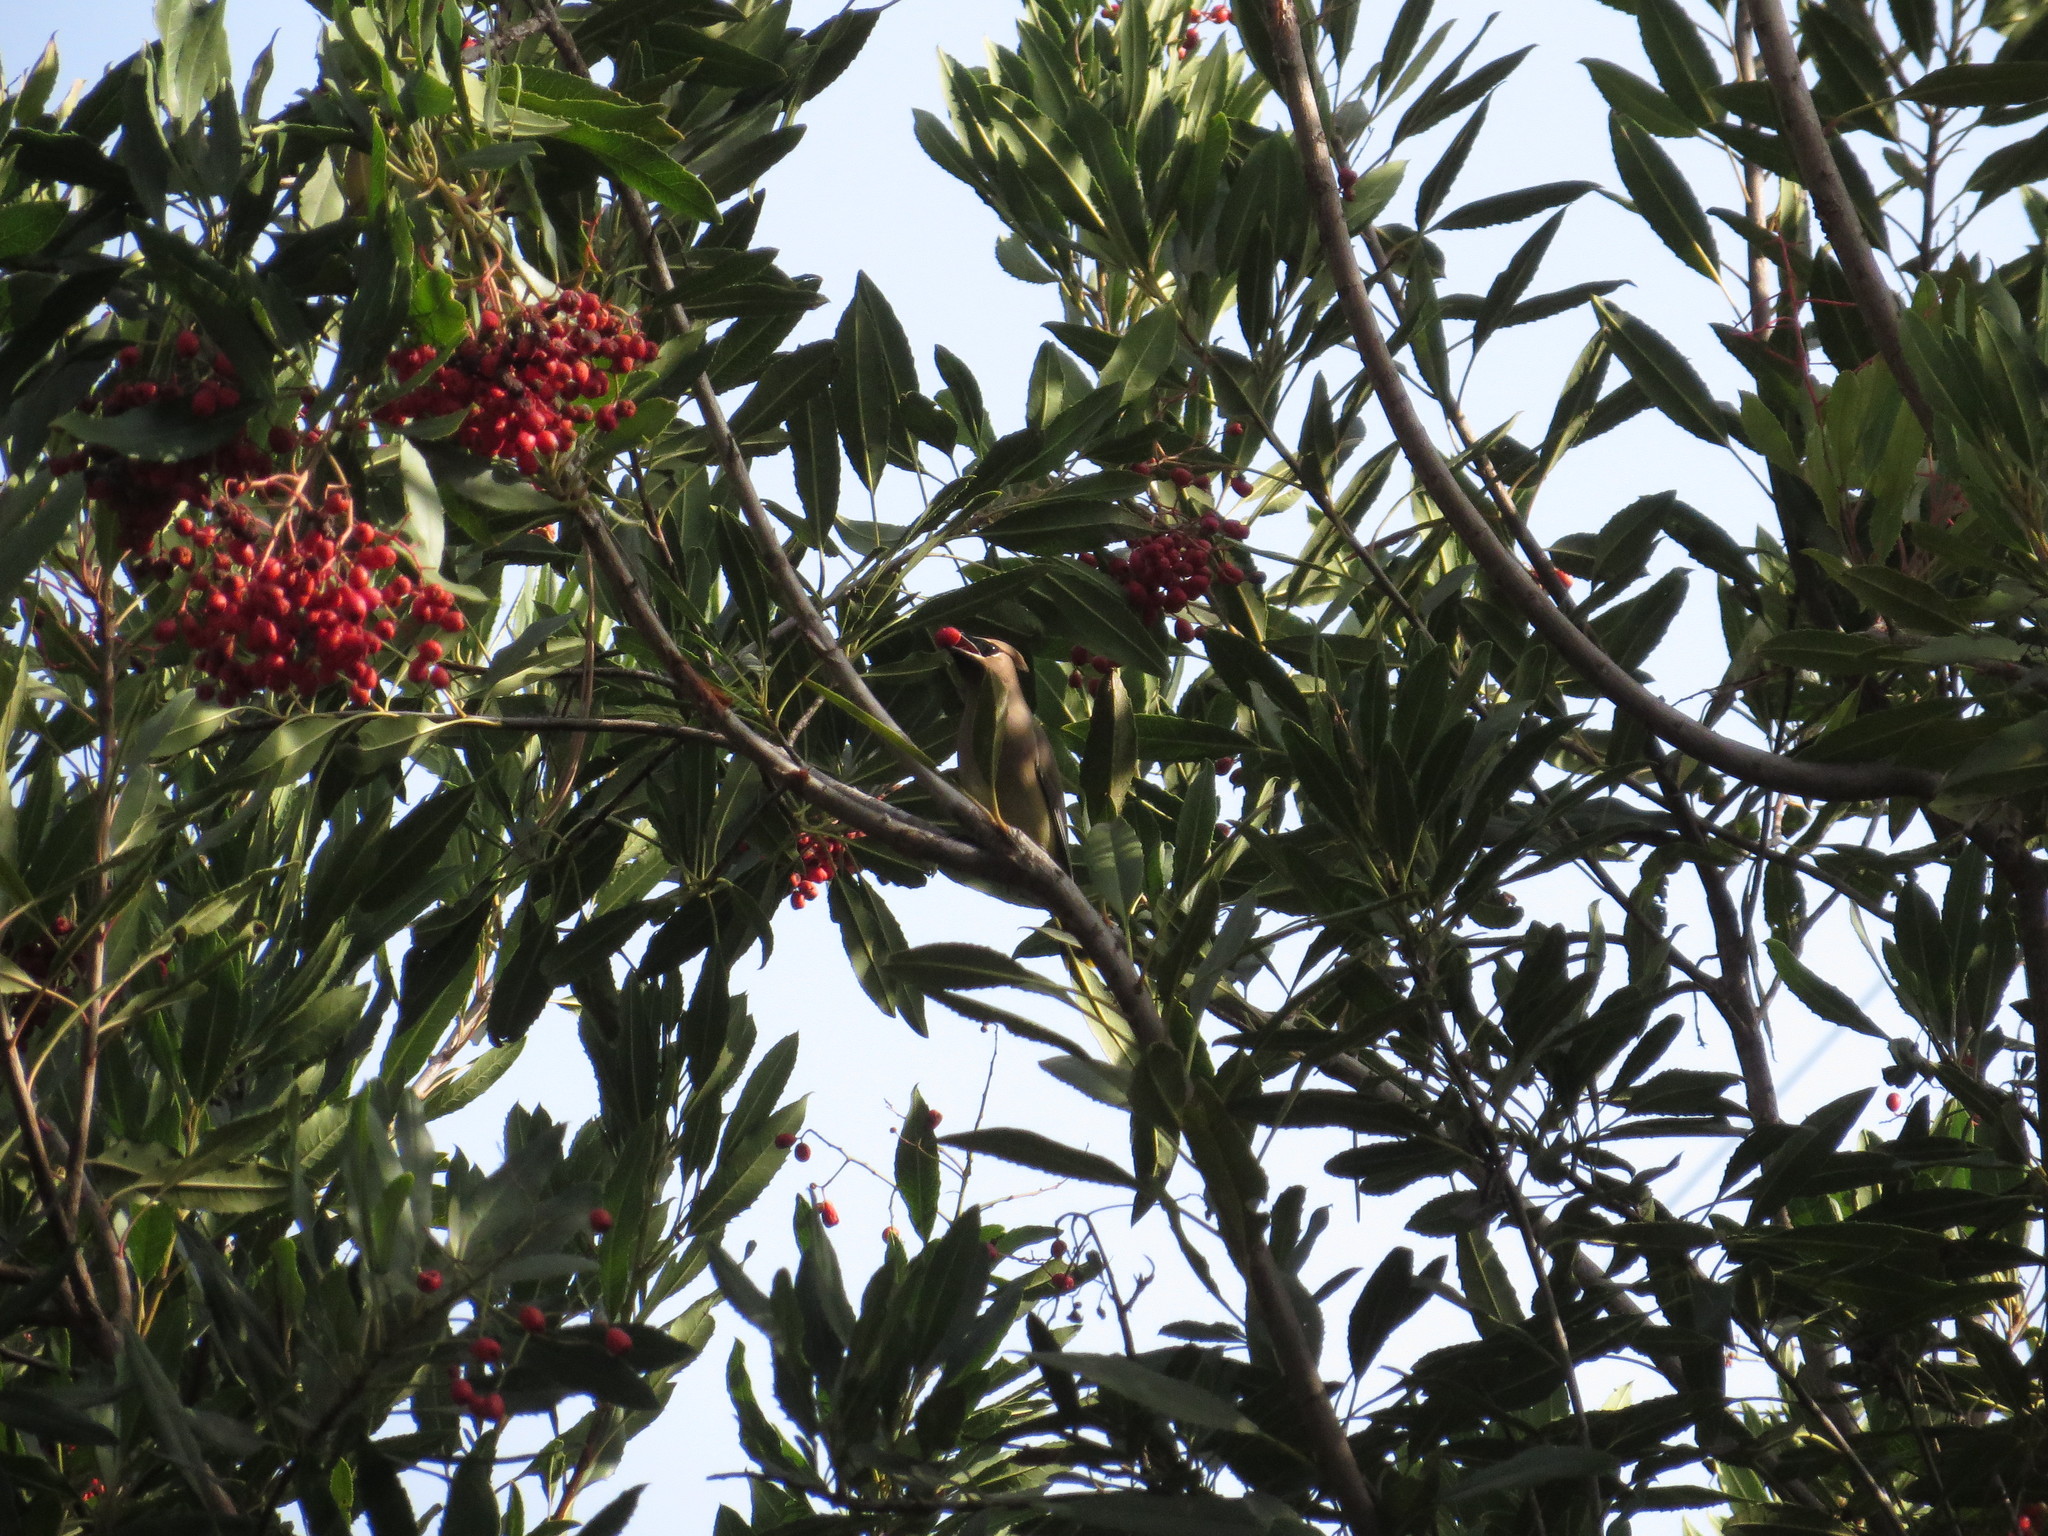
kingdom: Animalia
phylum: Chordata
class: Aves
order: Passeriformes
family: Bombycillidae
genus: Bombycilla
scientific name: Bombycilla cedrorum
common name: Cedar waxwing
